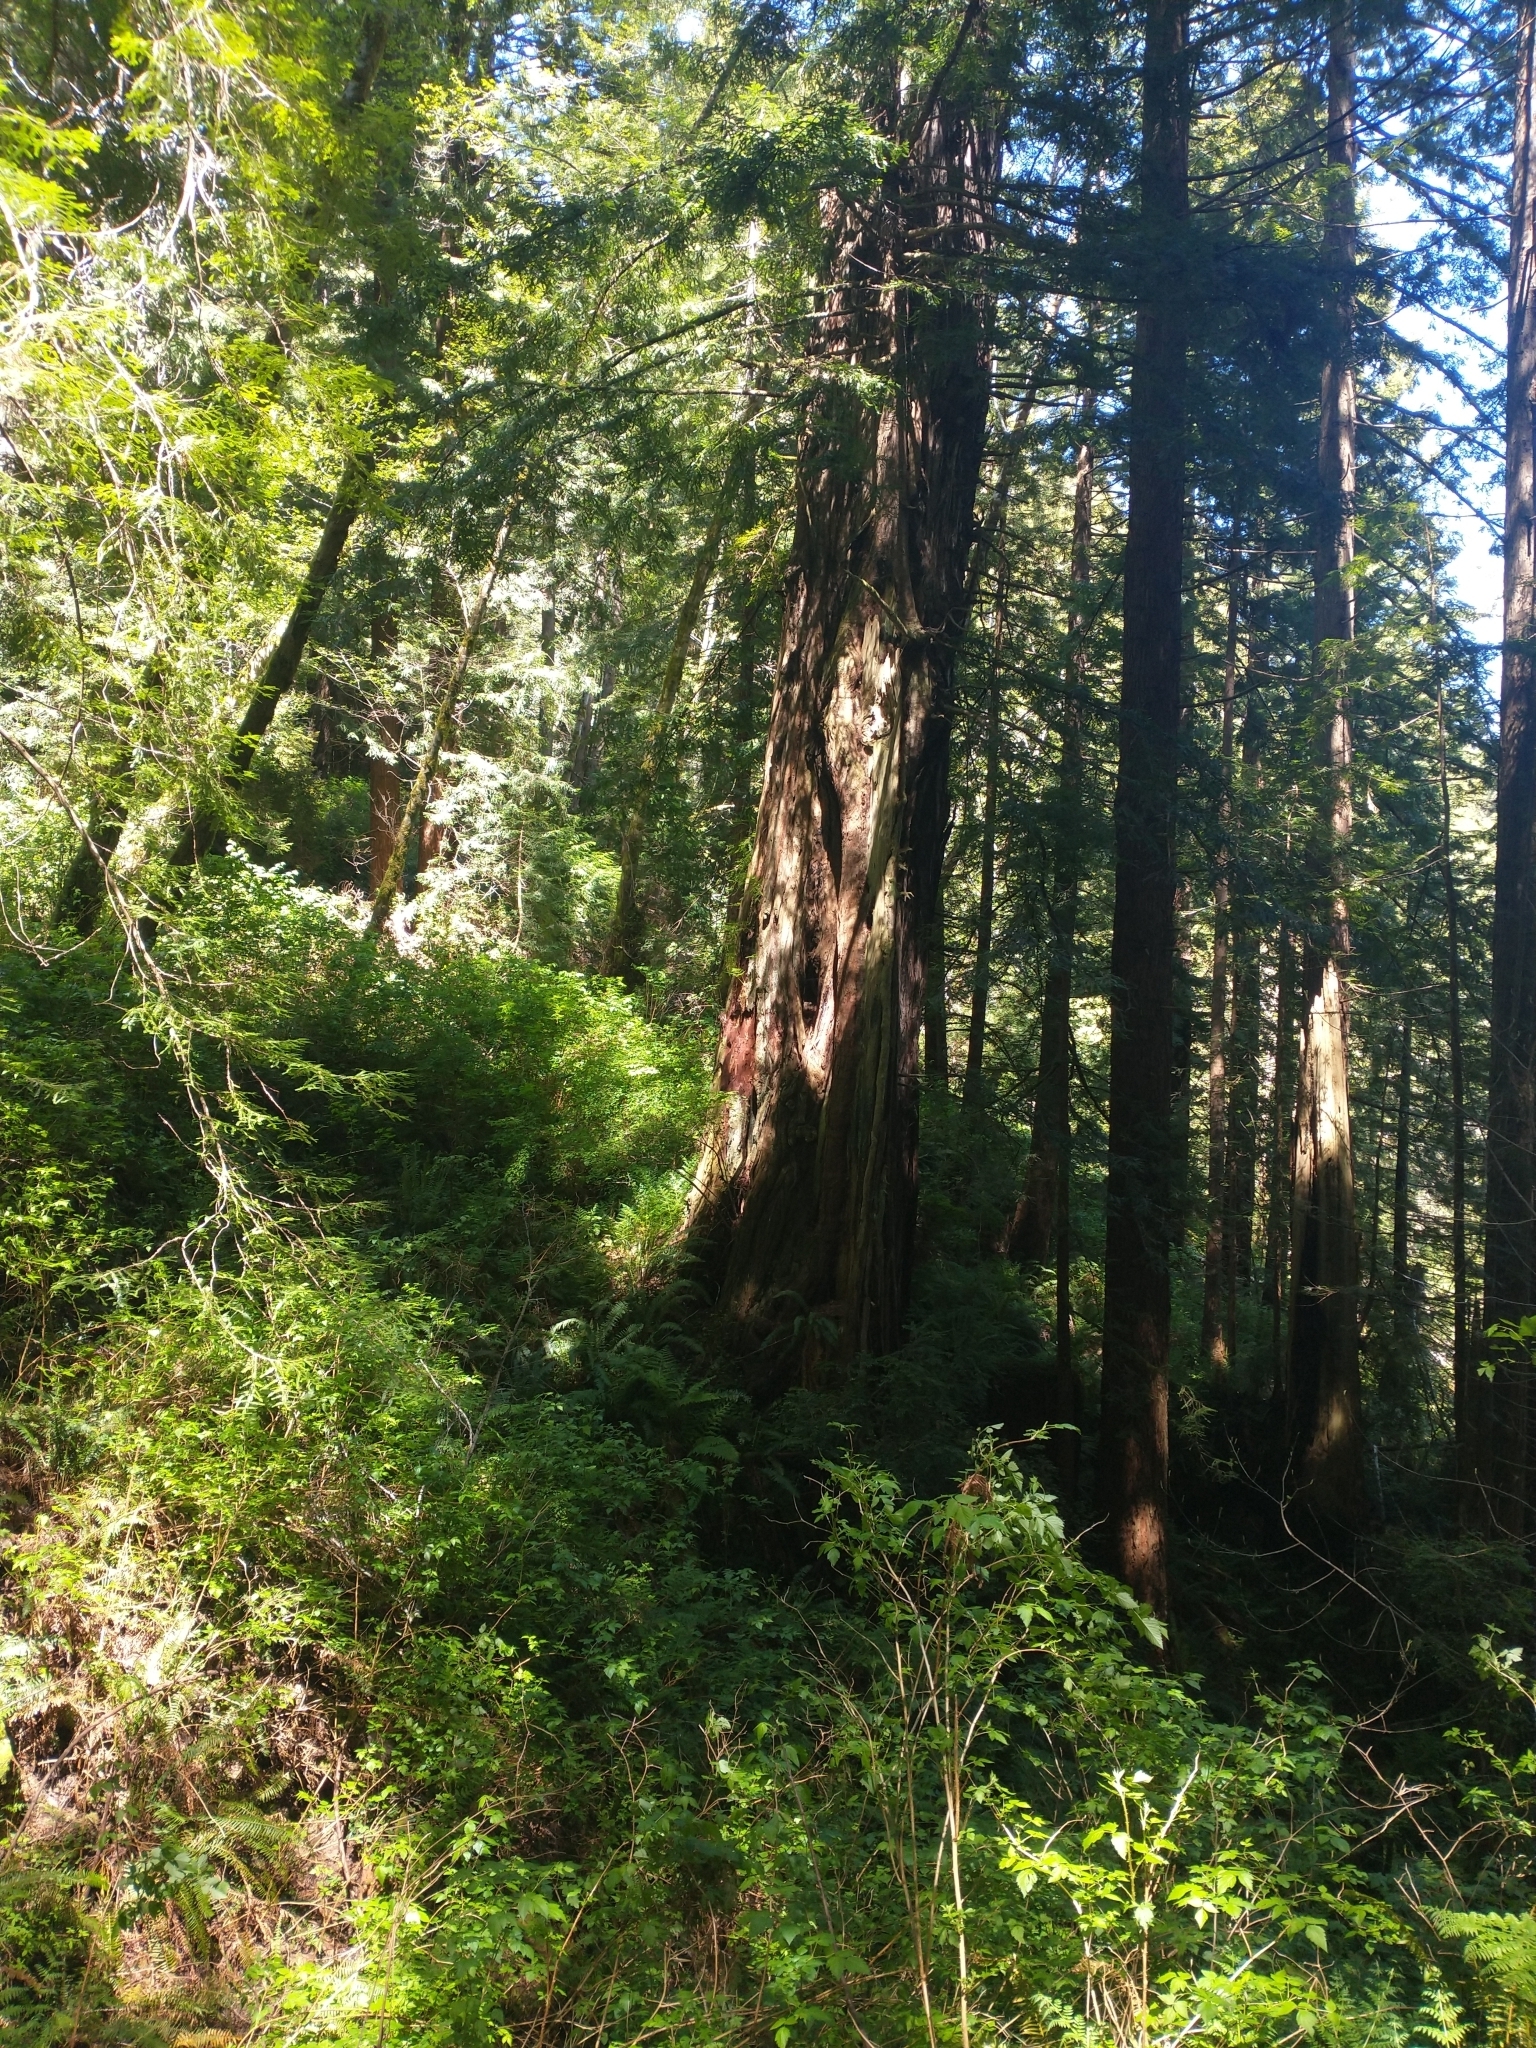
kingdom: Plantae
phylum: Tracheophyta
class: Magnoliopsida
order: Rosales
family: Rosaceae
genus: Rubus
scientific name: Rubus spectabilis
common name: Salmonberry
